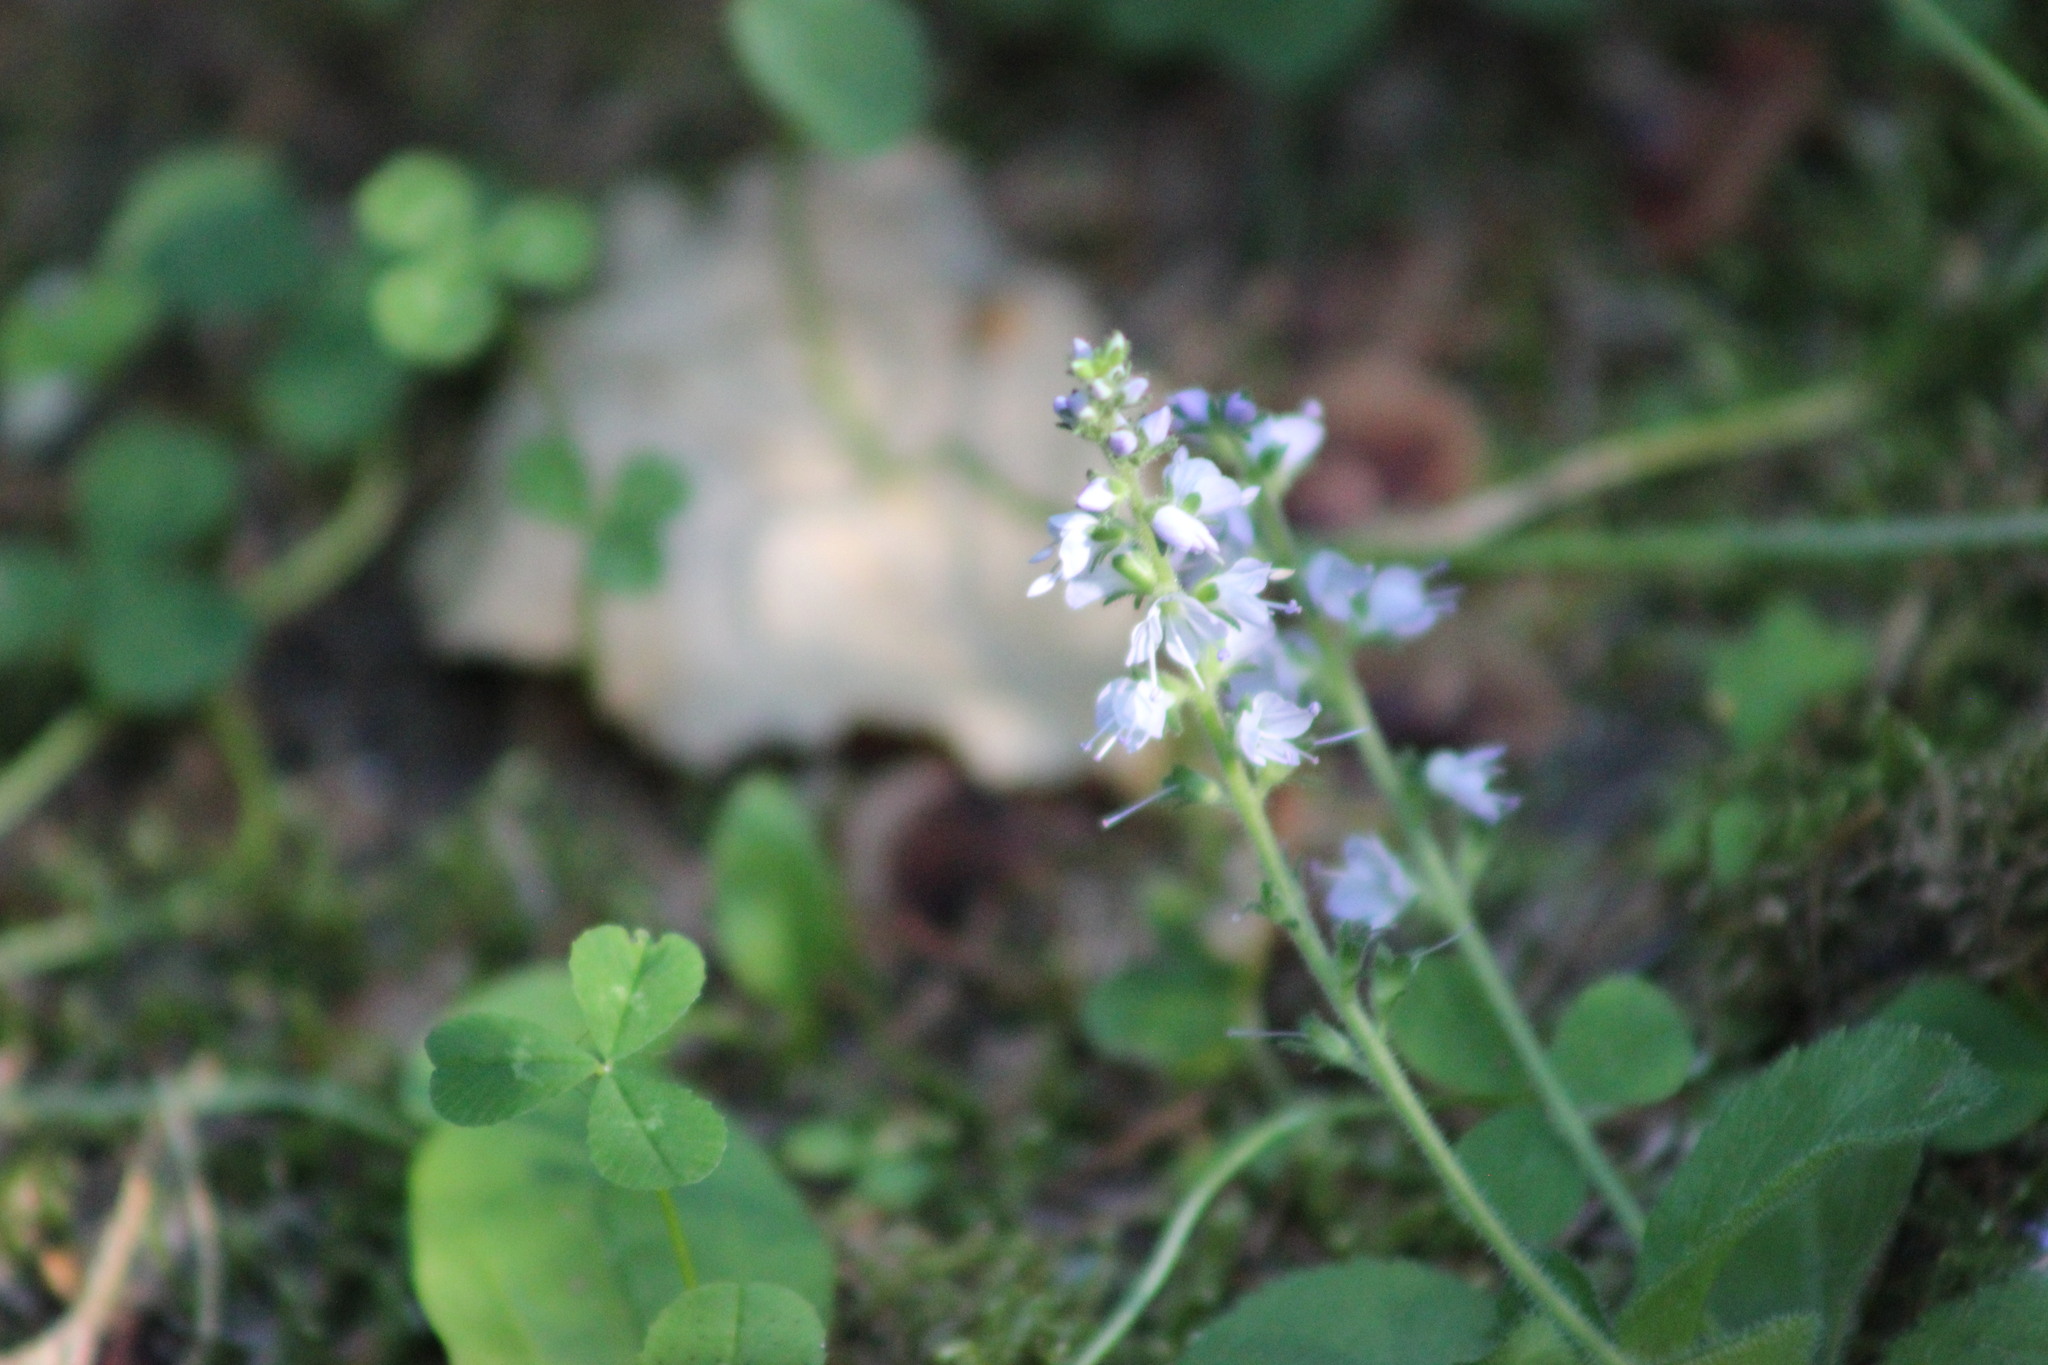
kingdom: Plantae
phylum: Tracheophyta
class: Magnoliopsida
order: Lamiales
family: Plantaginaceae
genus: Veronica
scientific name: Veronica officinalis
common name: Common speedwell
